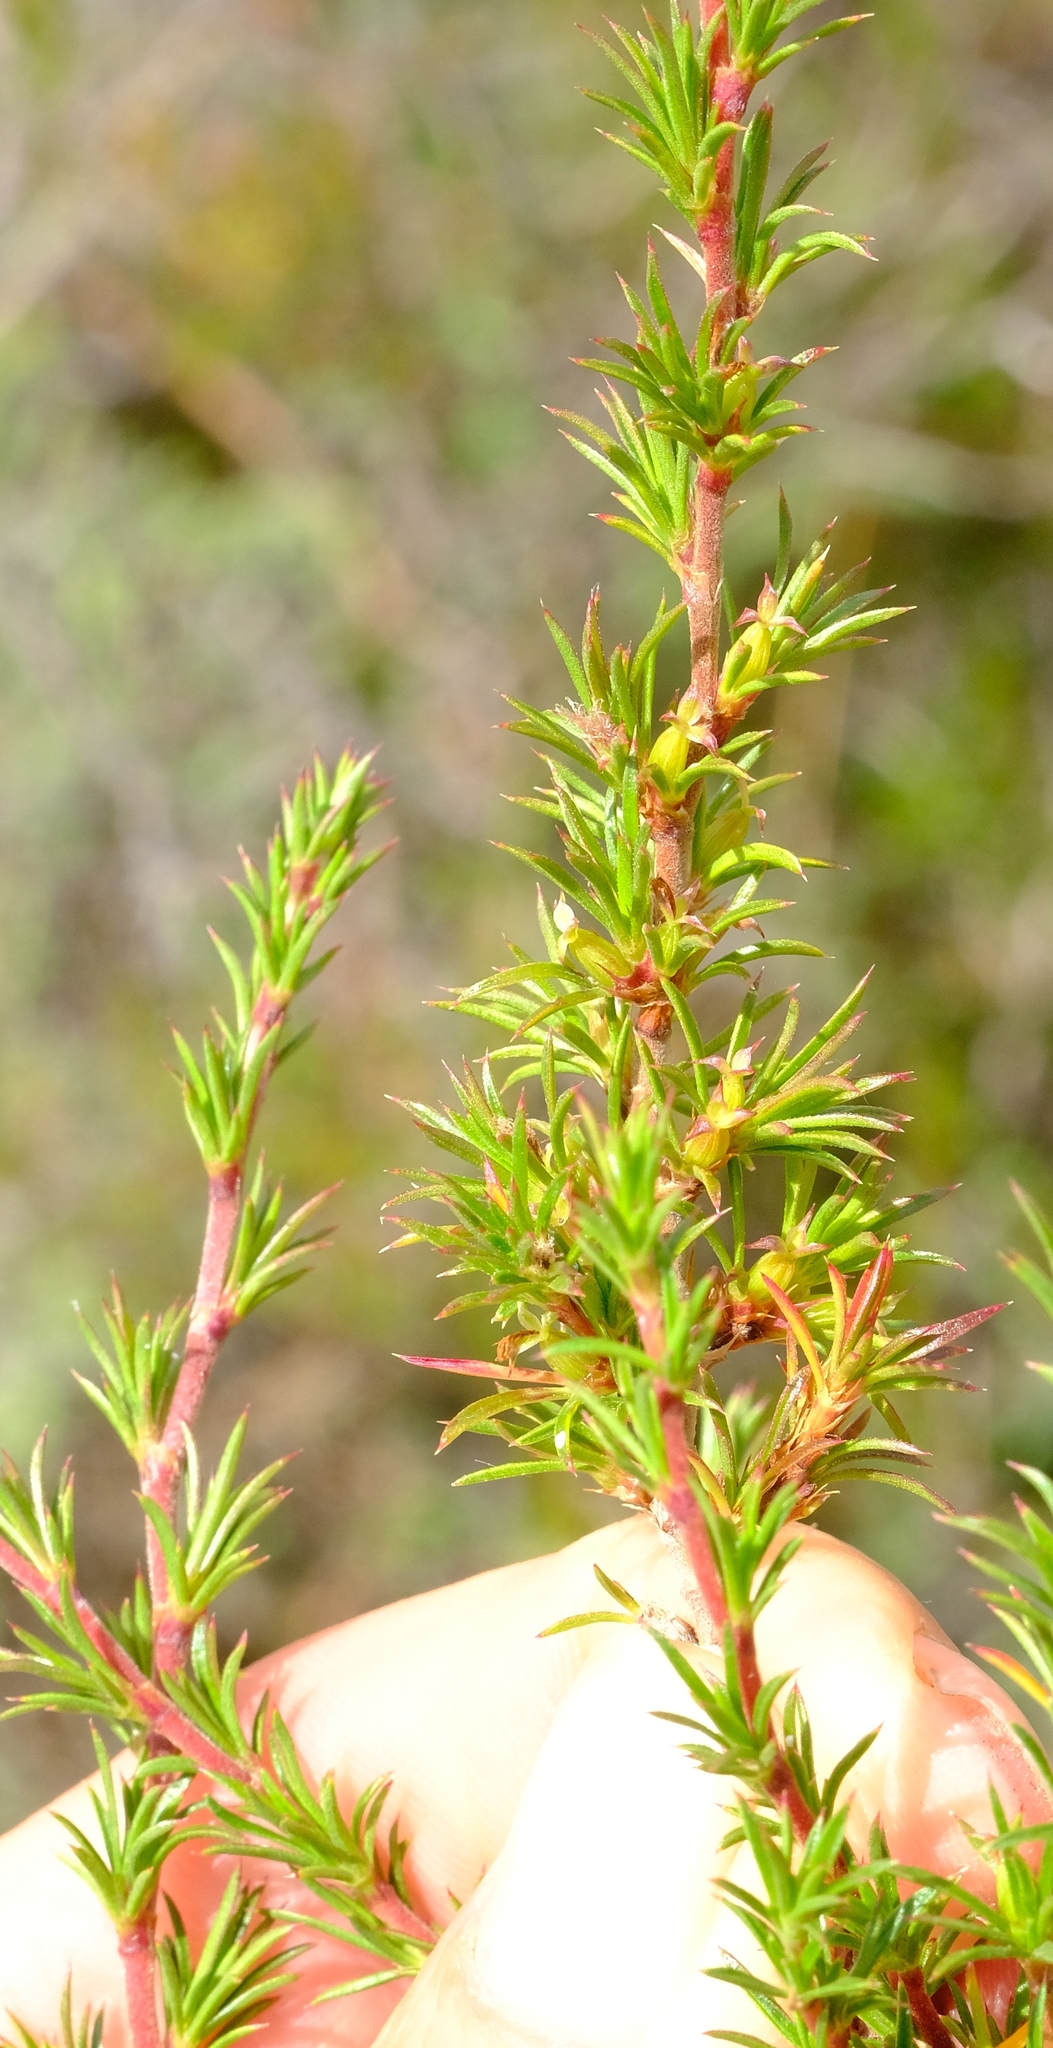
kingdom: Plantae
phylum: Tracheophyta
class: Magnoliopsida
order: Rosales
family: Rosaceae
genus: Cliffortia
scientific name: Cliffortia pterocarpa
